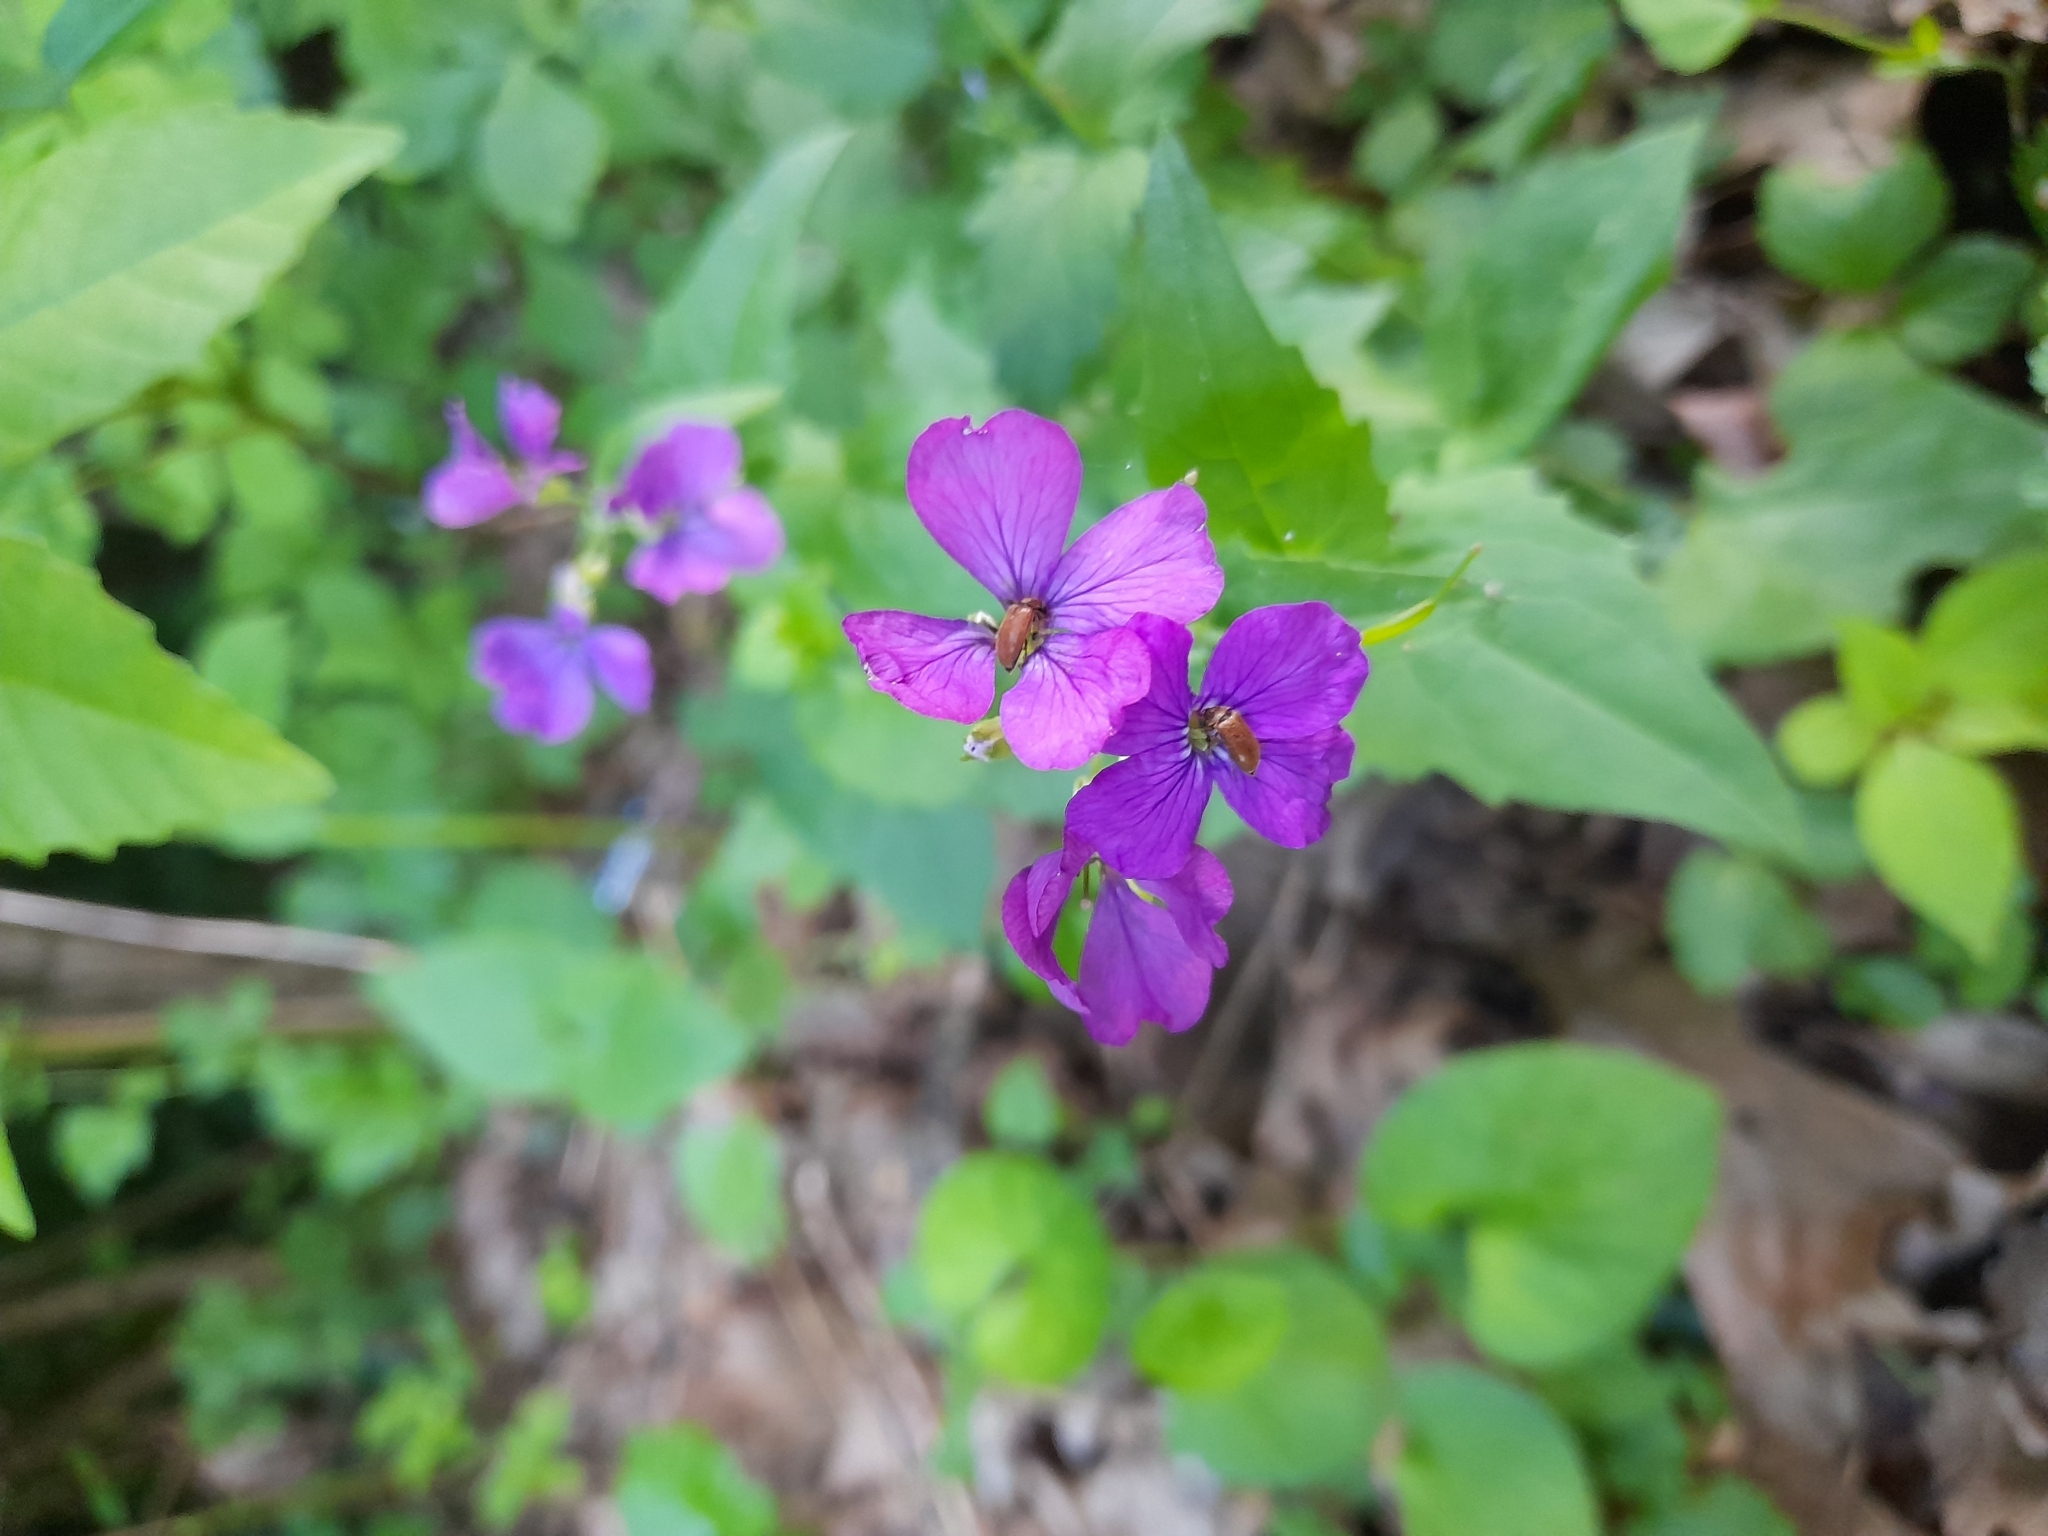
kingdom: Plantae
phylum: Tracheophyta
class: Magnoliopsida
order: Brassicales
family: Brassicaceae
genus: Lunaria
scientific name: Lunaria annua
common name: Honesty
